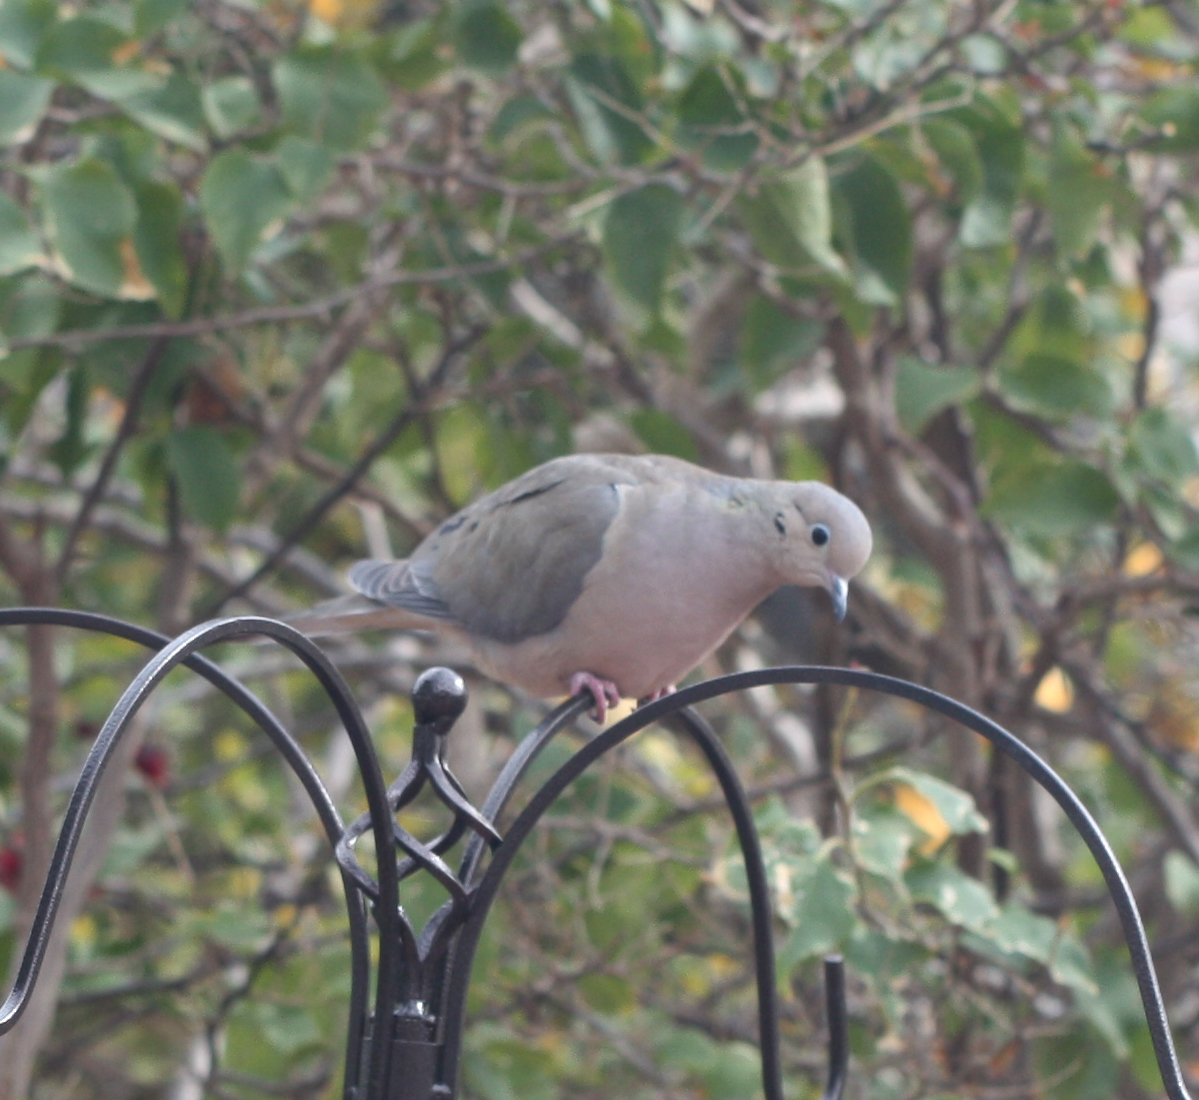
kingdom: Animalia
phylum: Chordata
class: Aves
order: Columbiformes
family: Columbidae
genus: Zenaida
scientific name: Zenaida macroura
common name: Mourning dove
